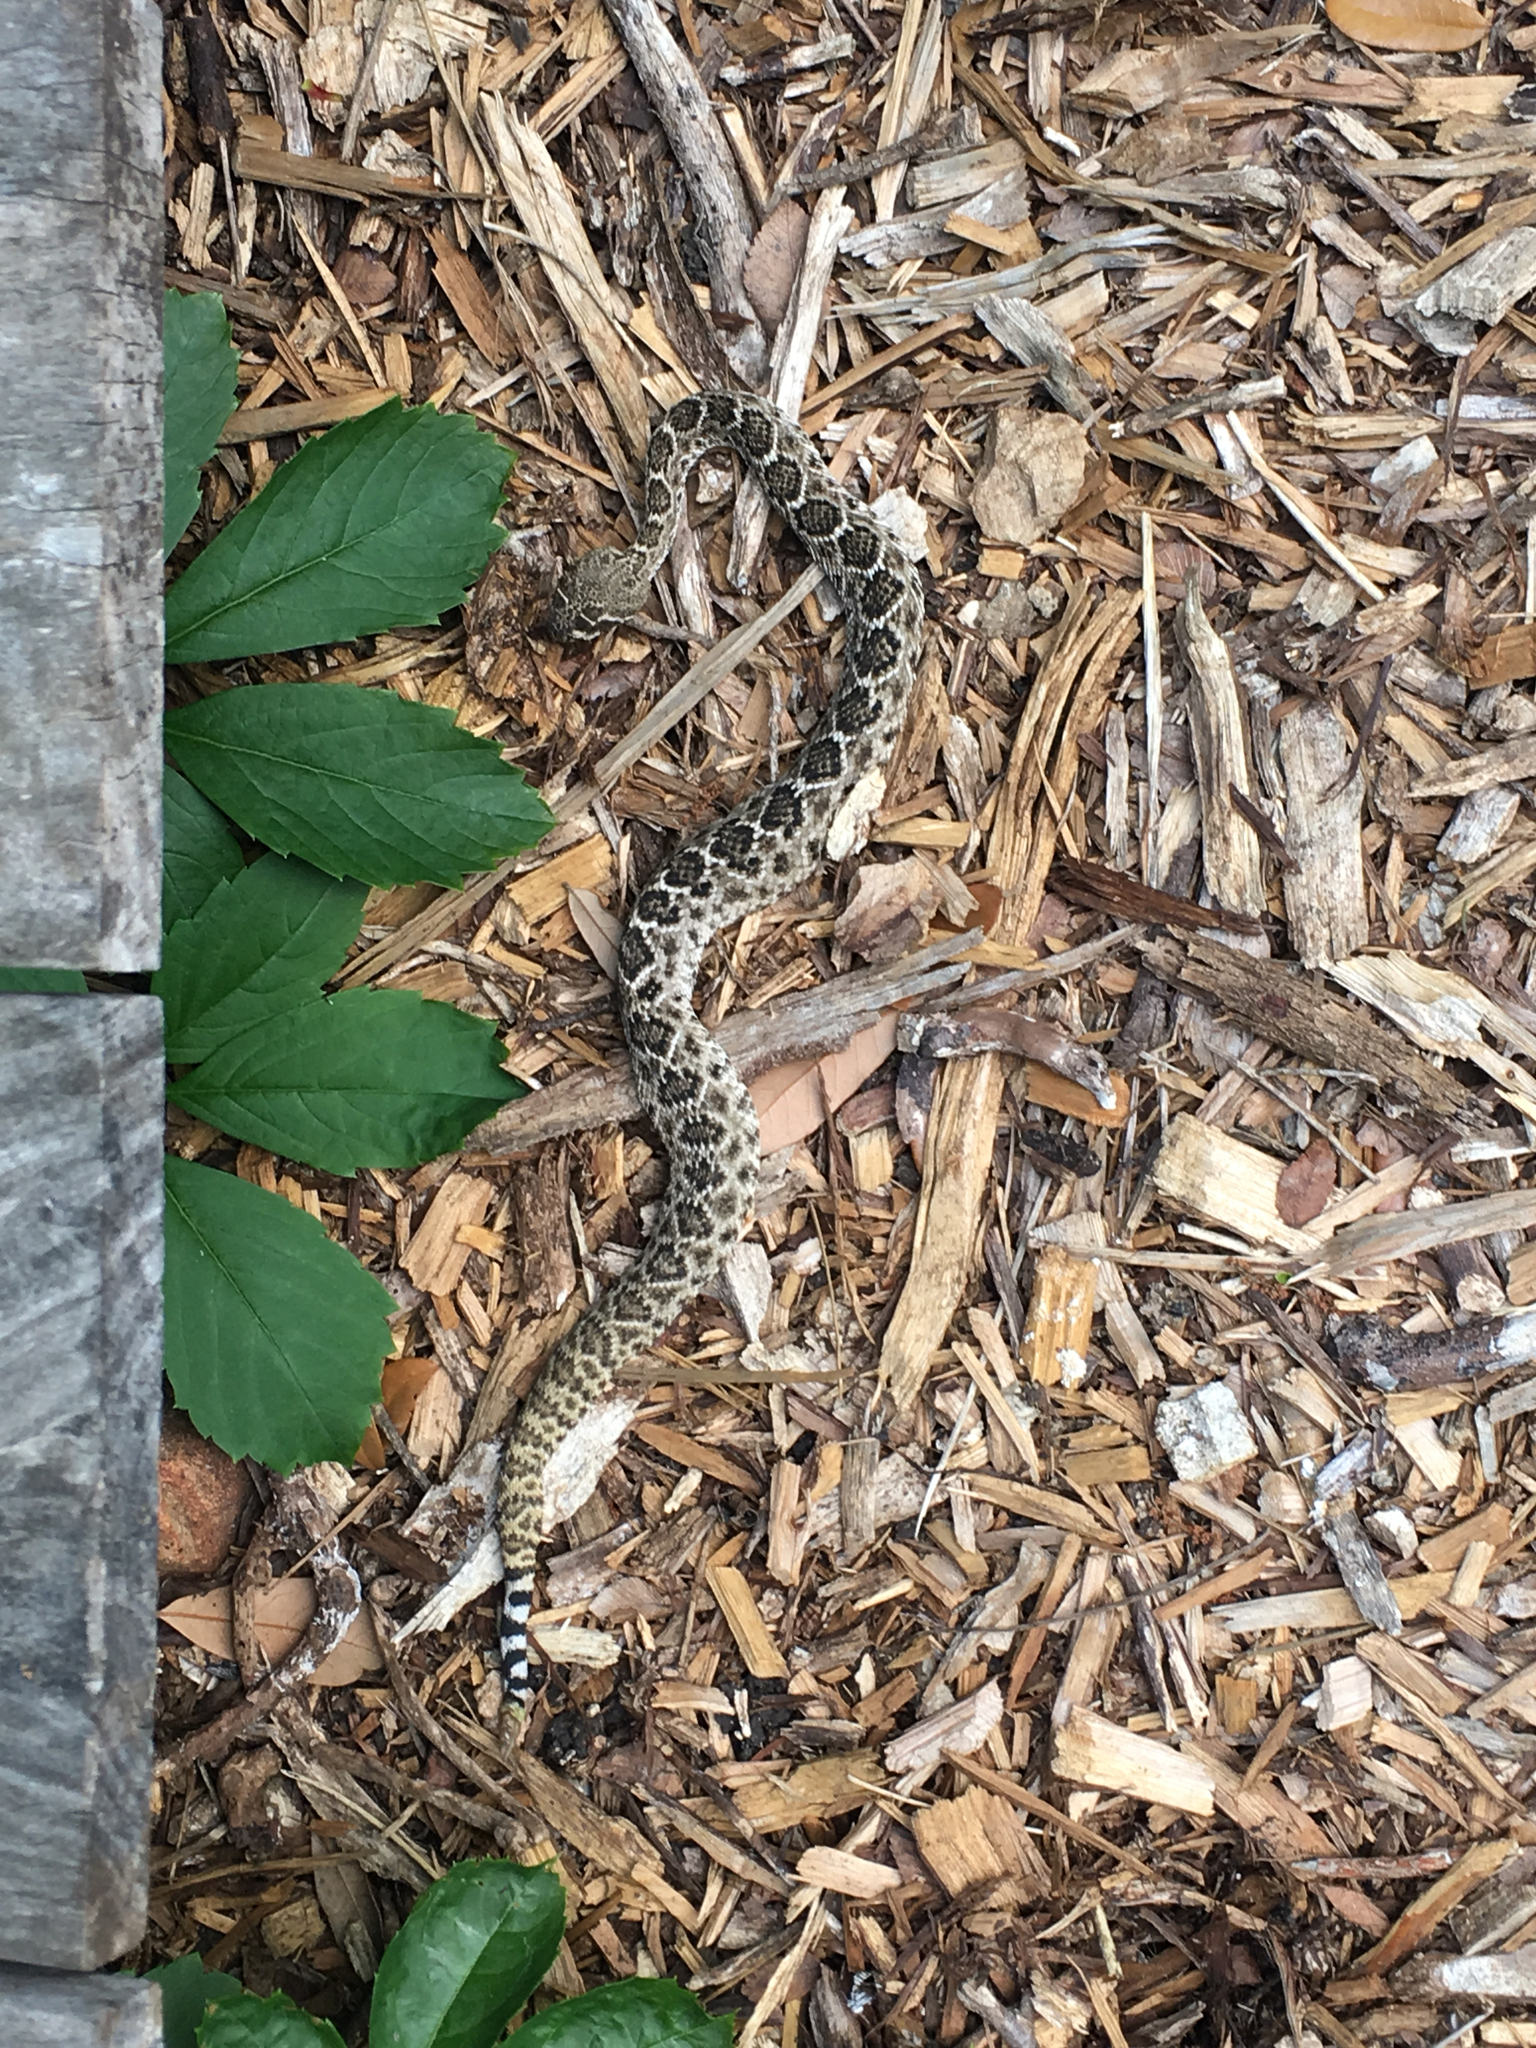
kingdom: Animalia
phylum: Chordata
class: Squamata
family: Viperidae
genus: Crotalus
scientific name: Crotalus atrox
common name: Western diamond-backed rattlesnake
